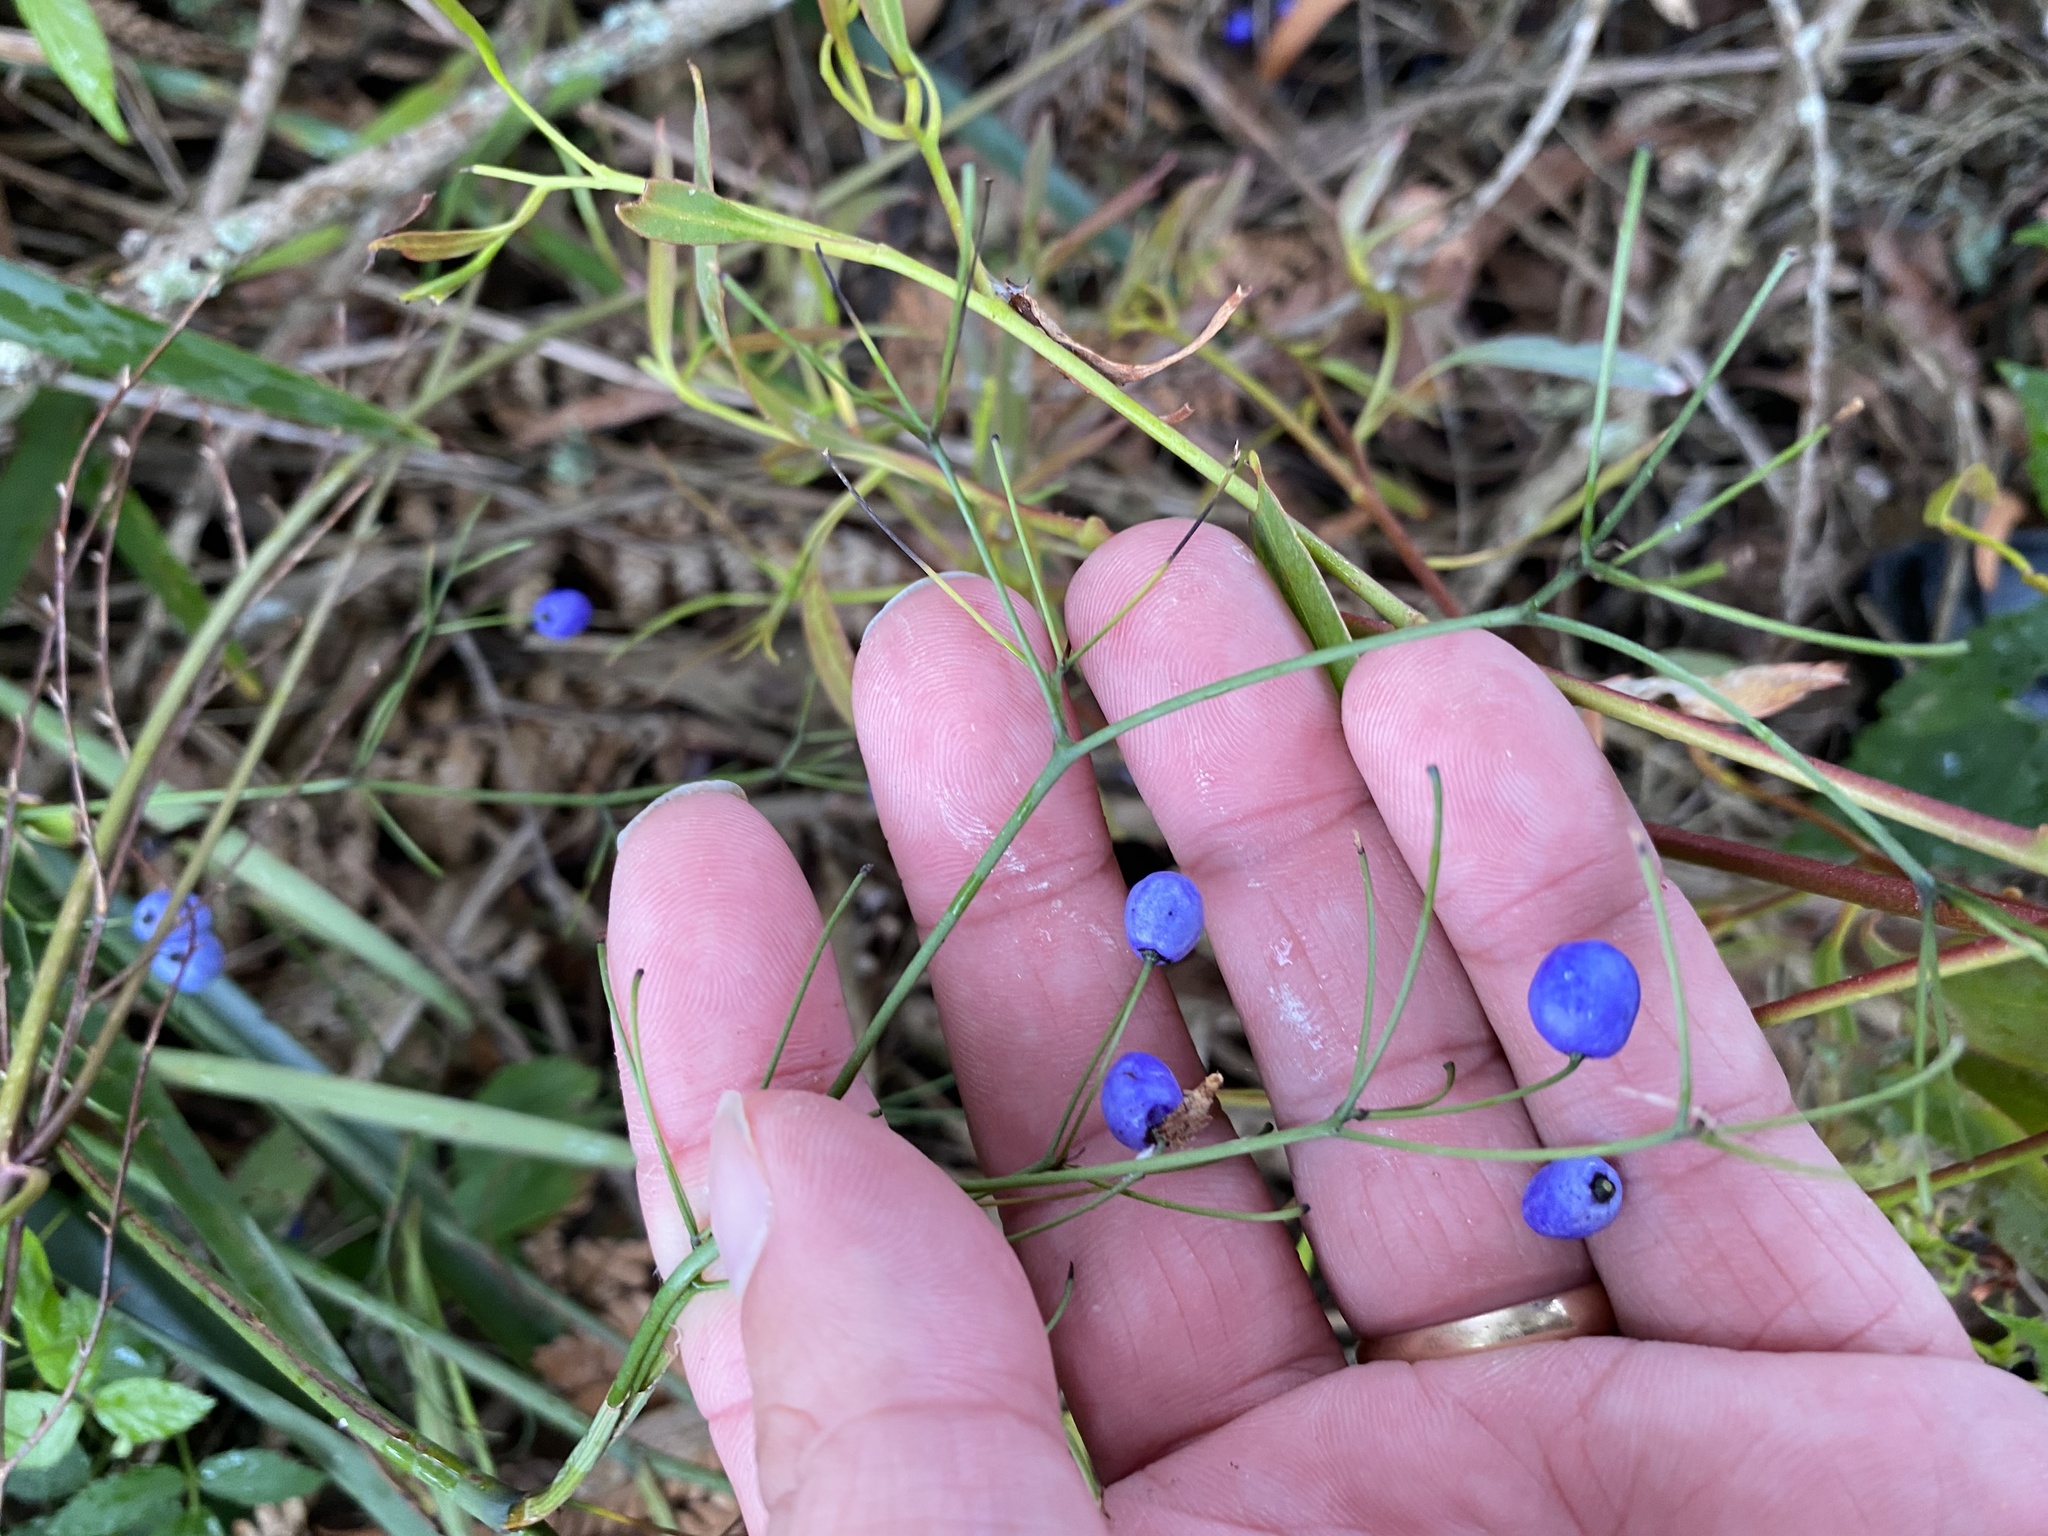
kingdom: Plantae
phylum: Tracheophyta
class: Liliopsida
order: Asparagales
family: Asphodelaceae
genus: Dianella
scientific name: Dianella haematica
